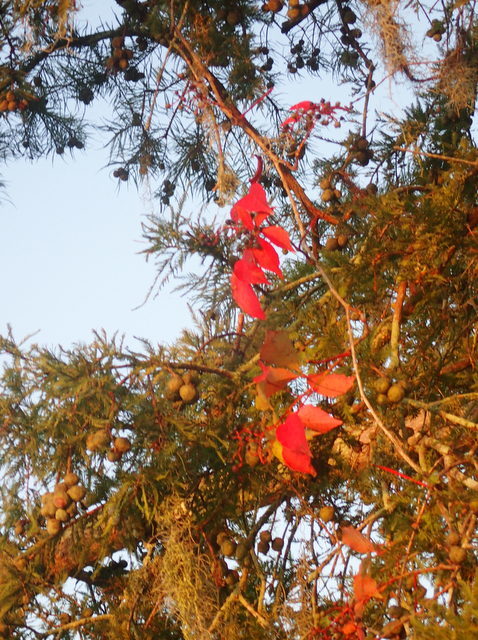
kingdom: Plantae
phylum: Tracheophyta
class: Magnoliopsida
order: Vitales
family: Vitaceae
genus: Parthenocissus
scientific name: Parthenocissus quinquefolia
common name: Virginia-creeper
